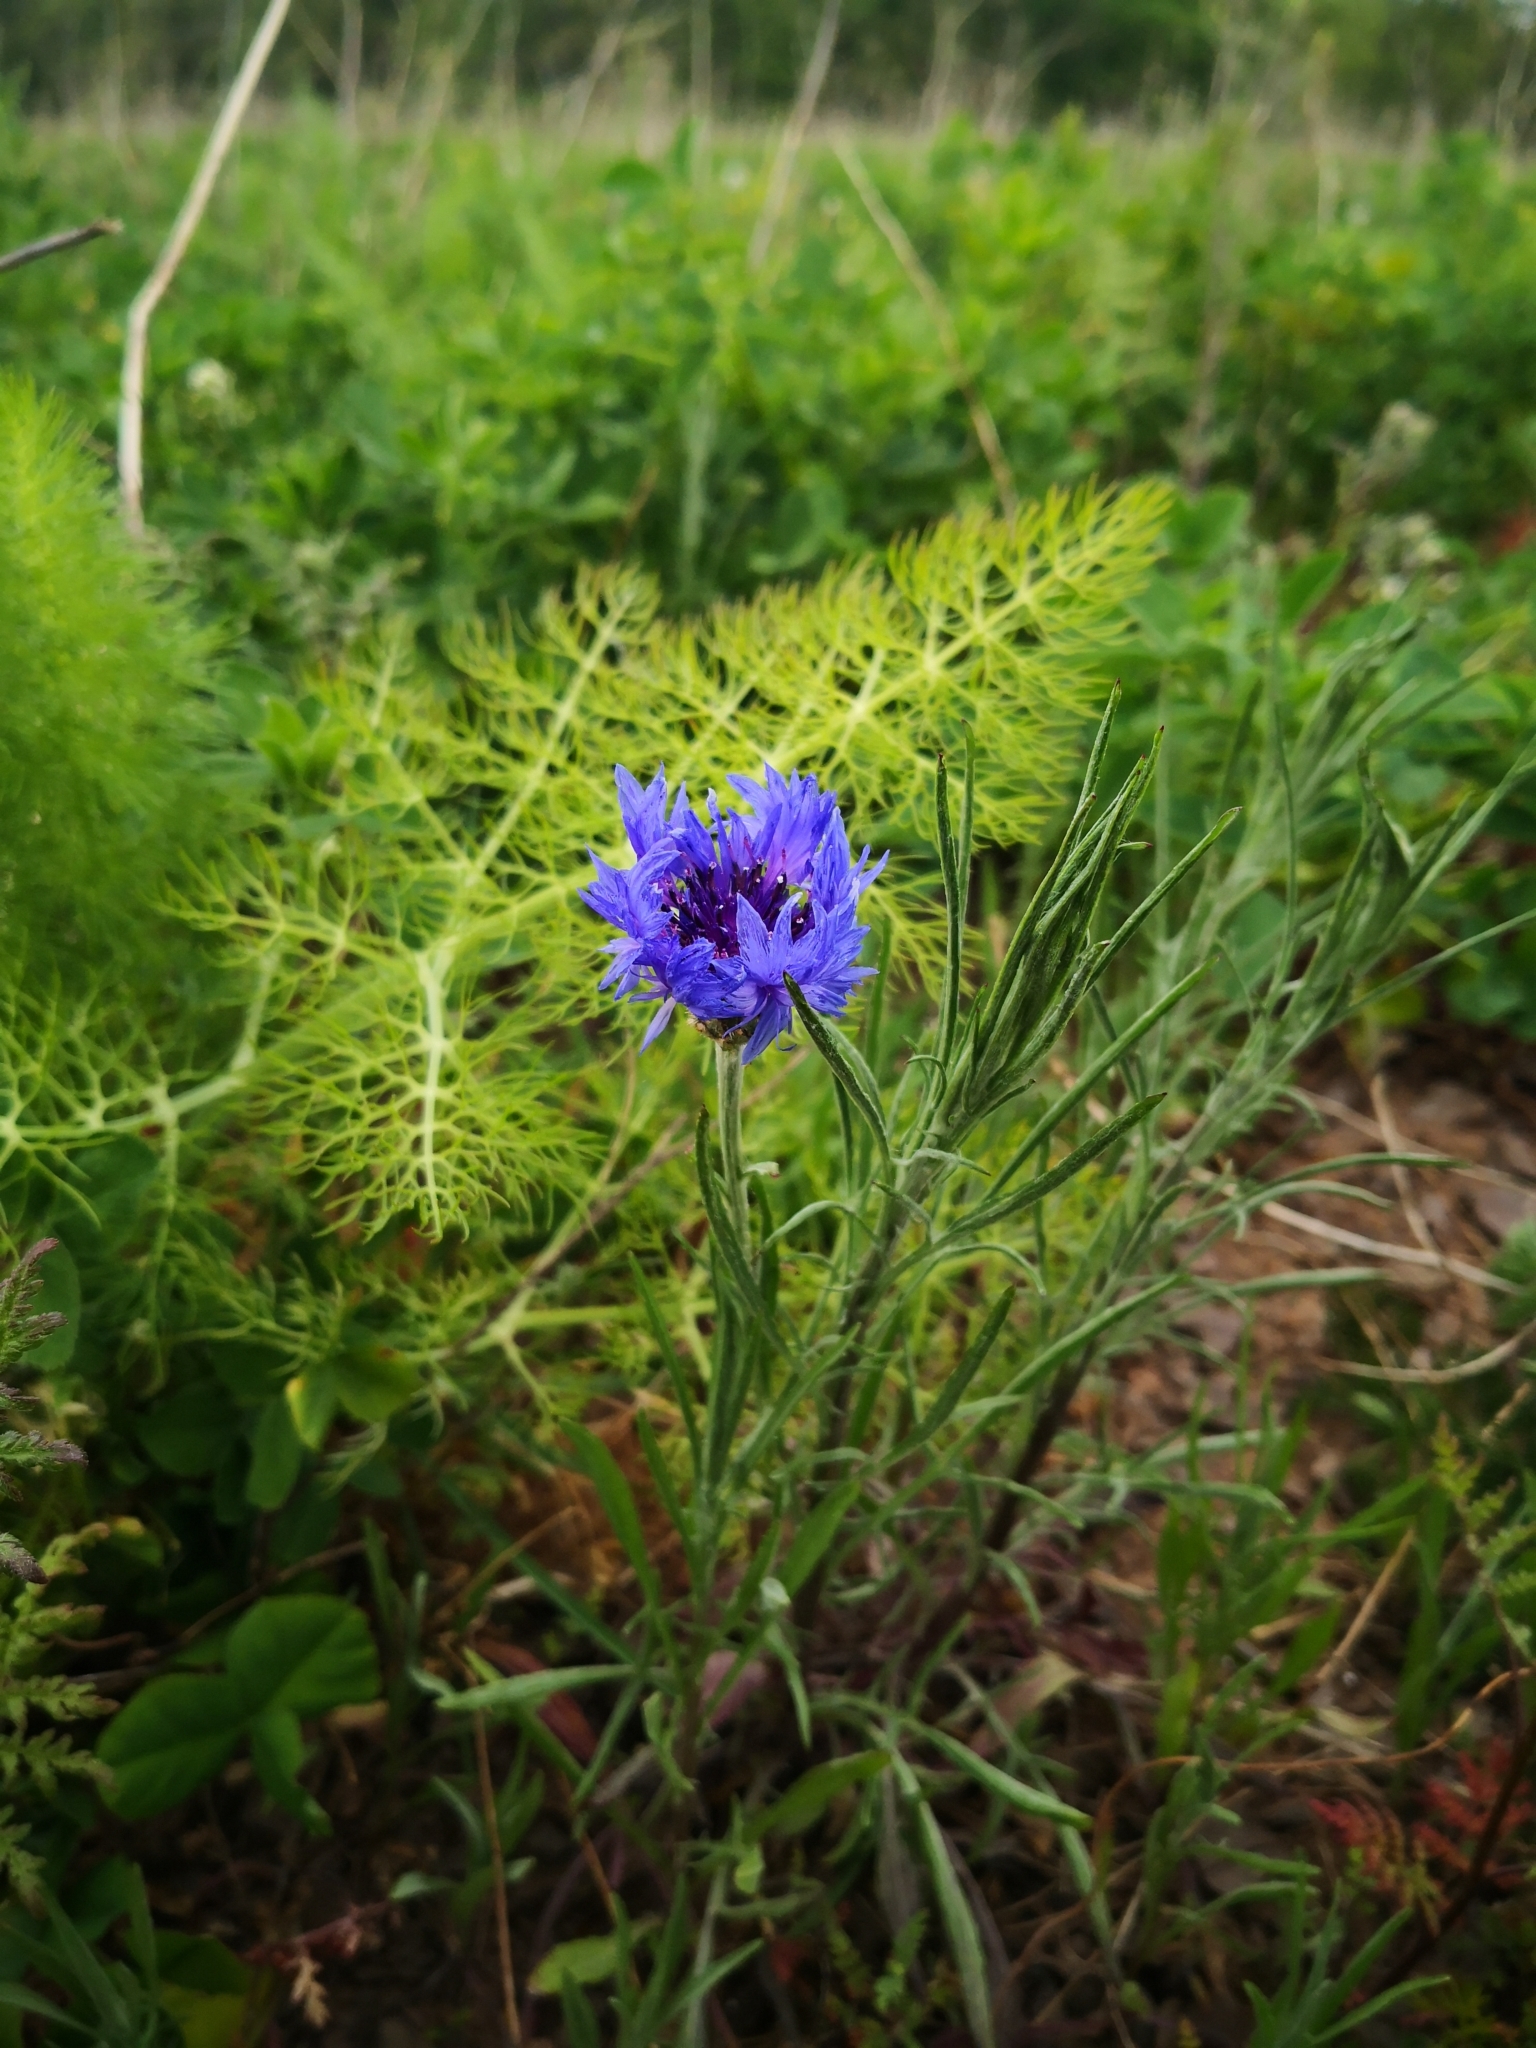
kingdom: Plantae
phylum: Tracheophyta
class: Magnoliopsida
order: Asterales
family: Asteraceae
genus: Centaurea
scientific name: Centaurea cyanus
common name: Cornflower
